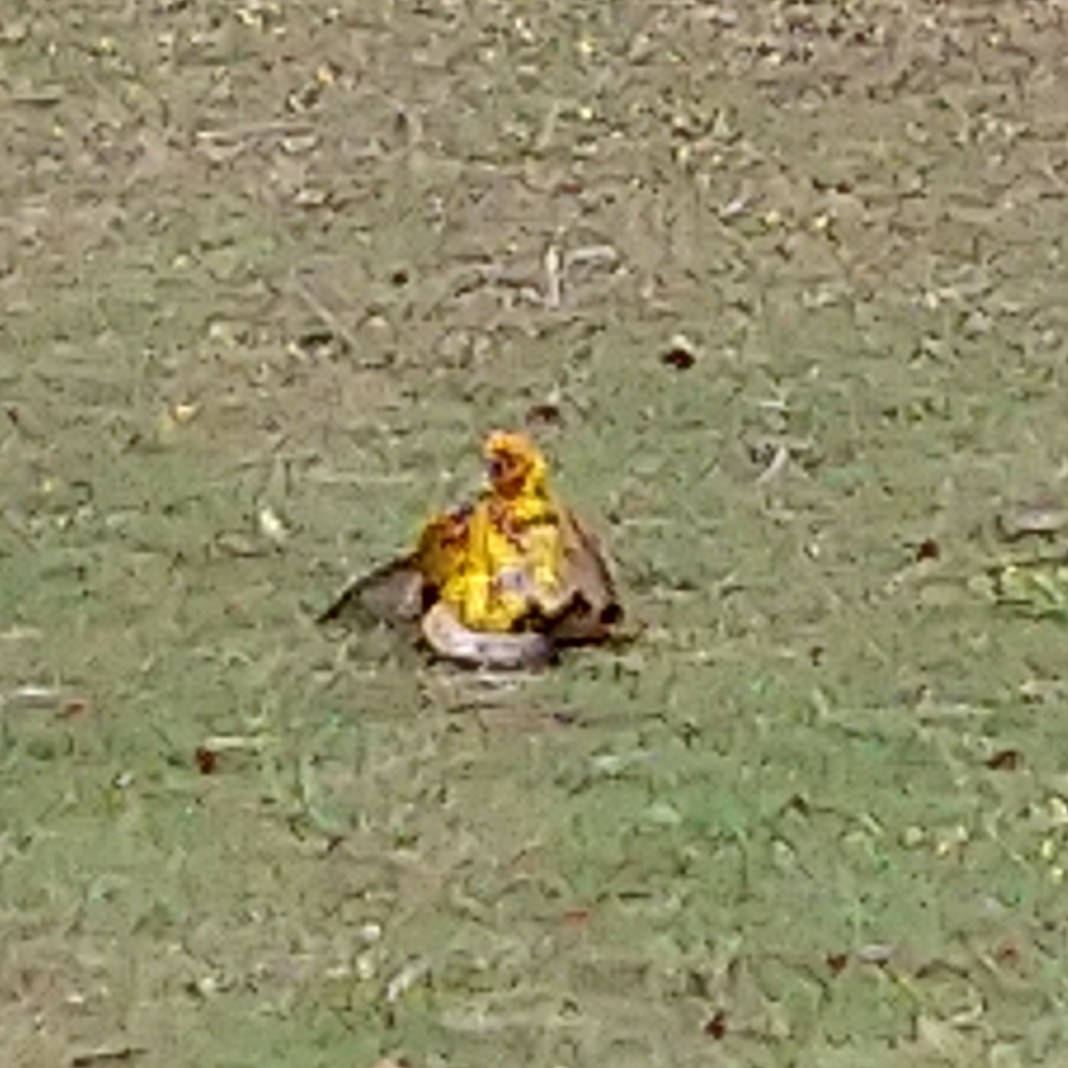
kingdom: Animalia
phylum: Chordata
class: Aves
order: Passeriformes
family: Ploceidae
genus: Ploceus
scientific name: Ploceus capensis
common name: Cape weaver
